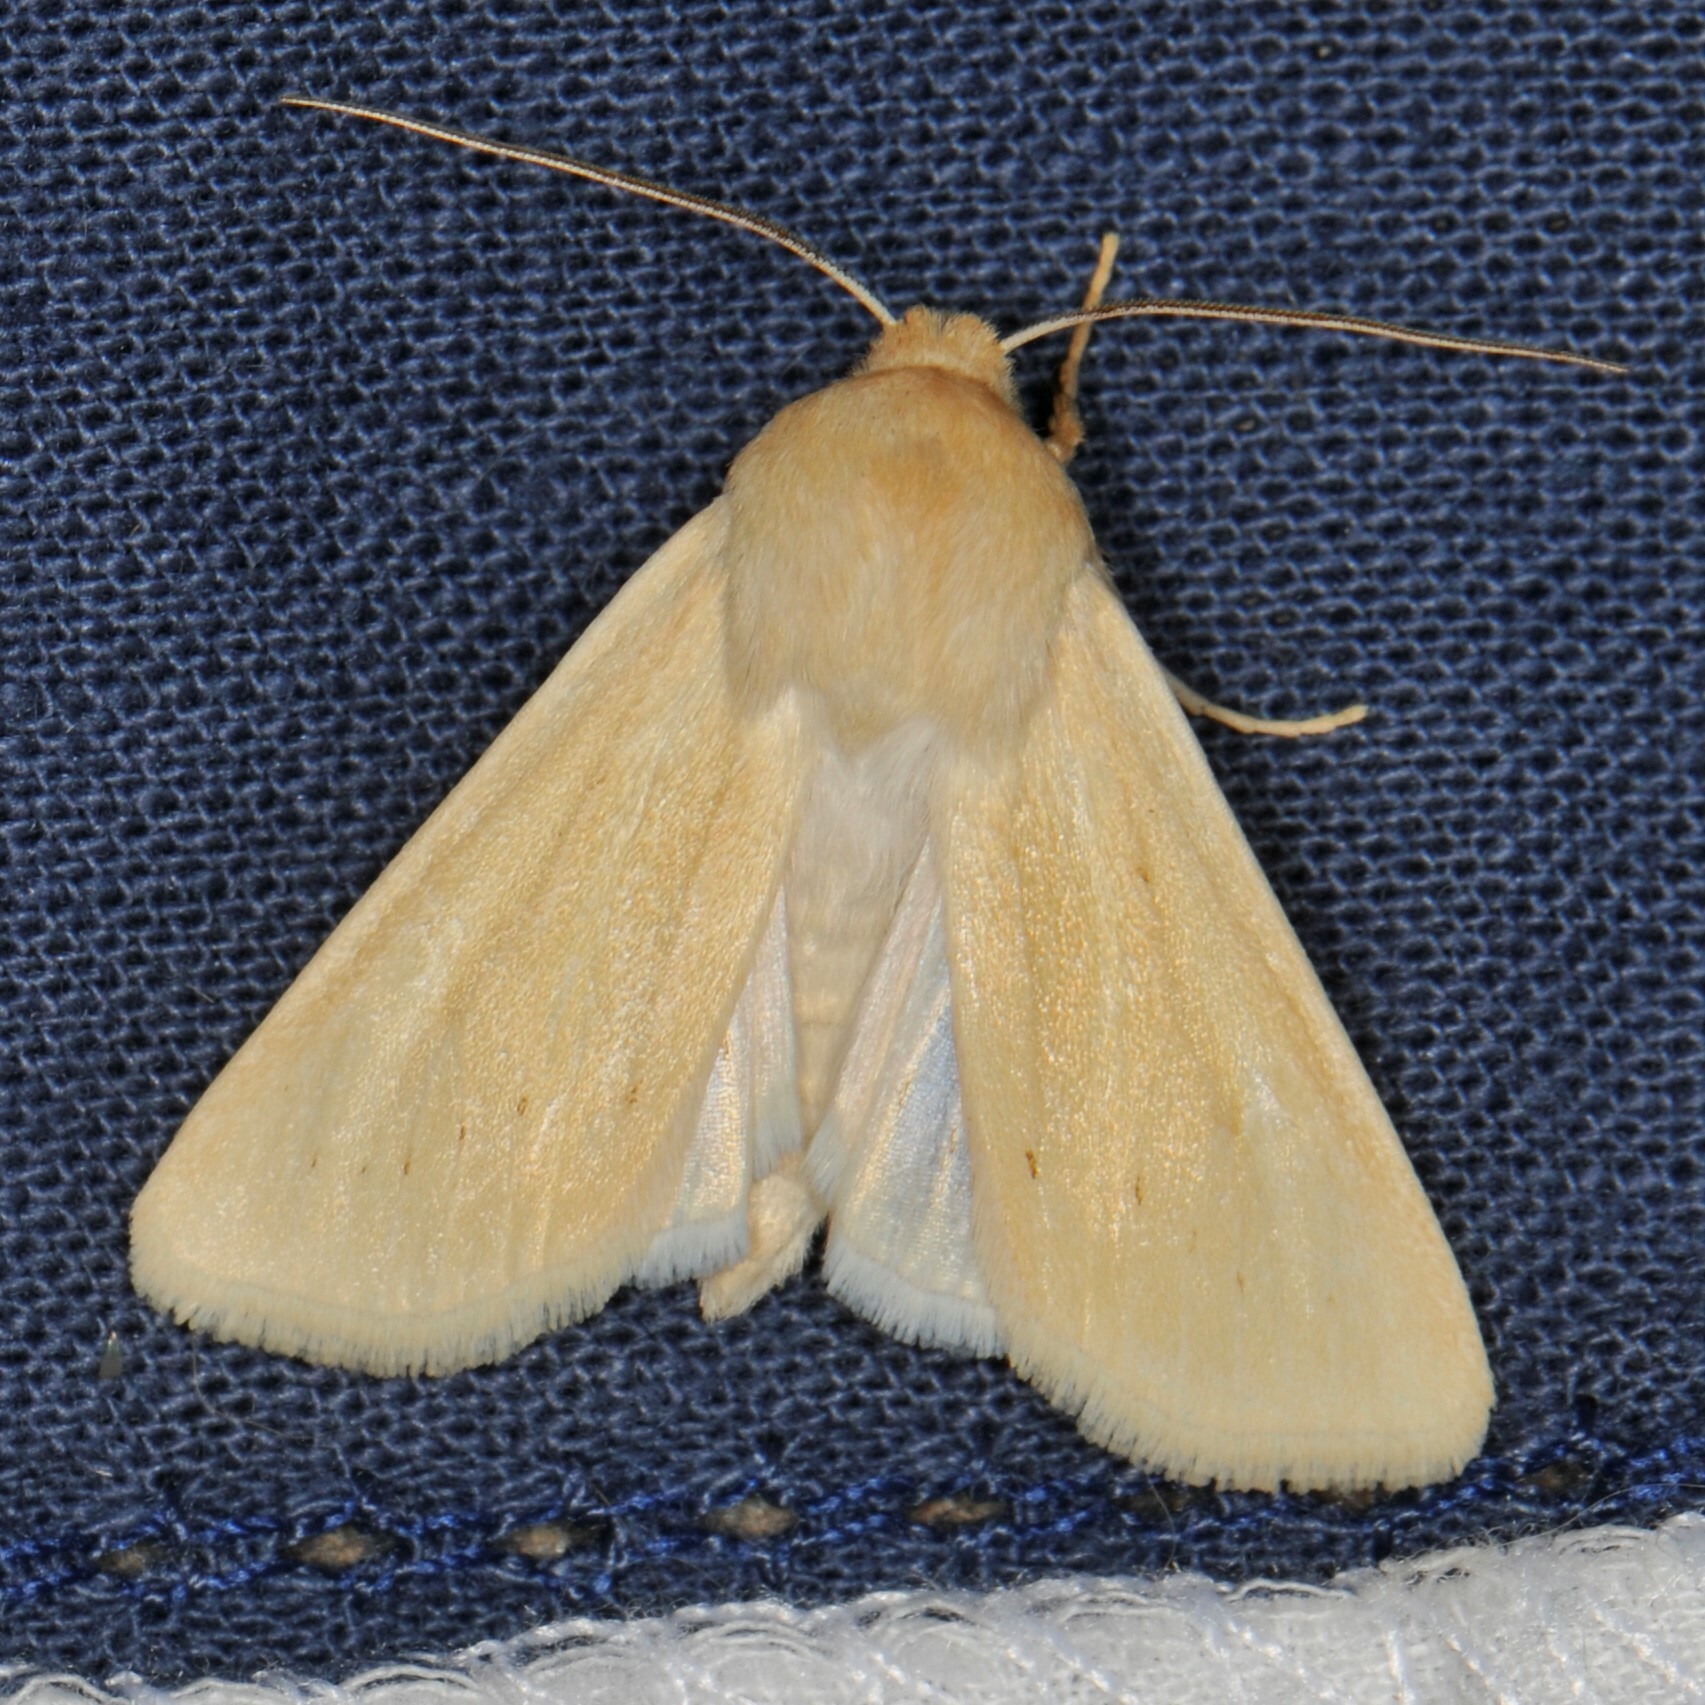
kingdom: Animalia
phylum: Arthropoda
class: Insecta
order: Lepidoptera
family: Noctuidae
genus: Copablepharon
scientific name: Copablepharon grandis
